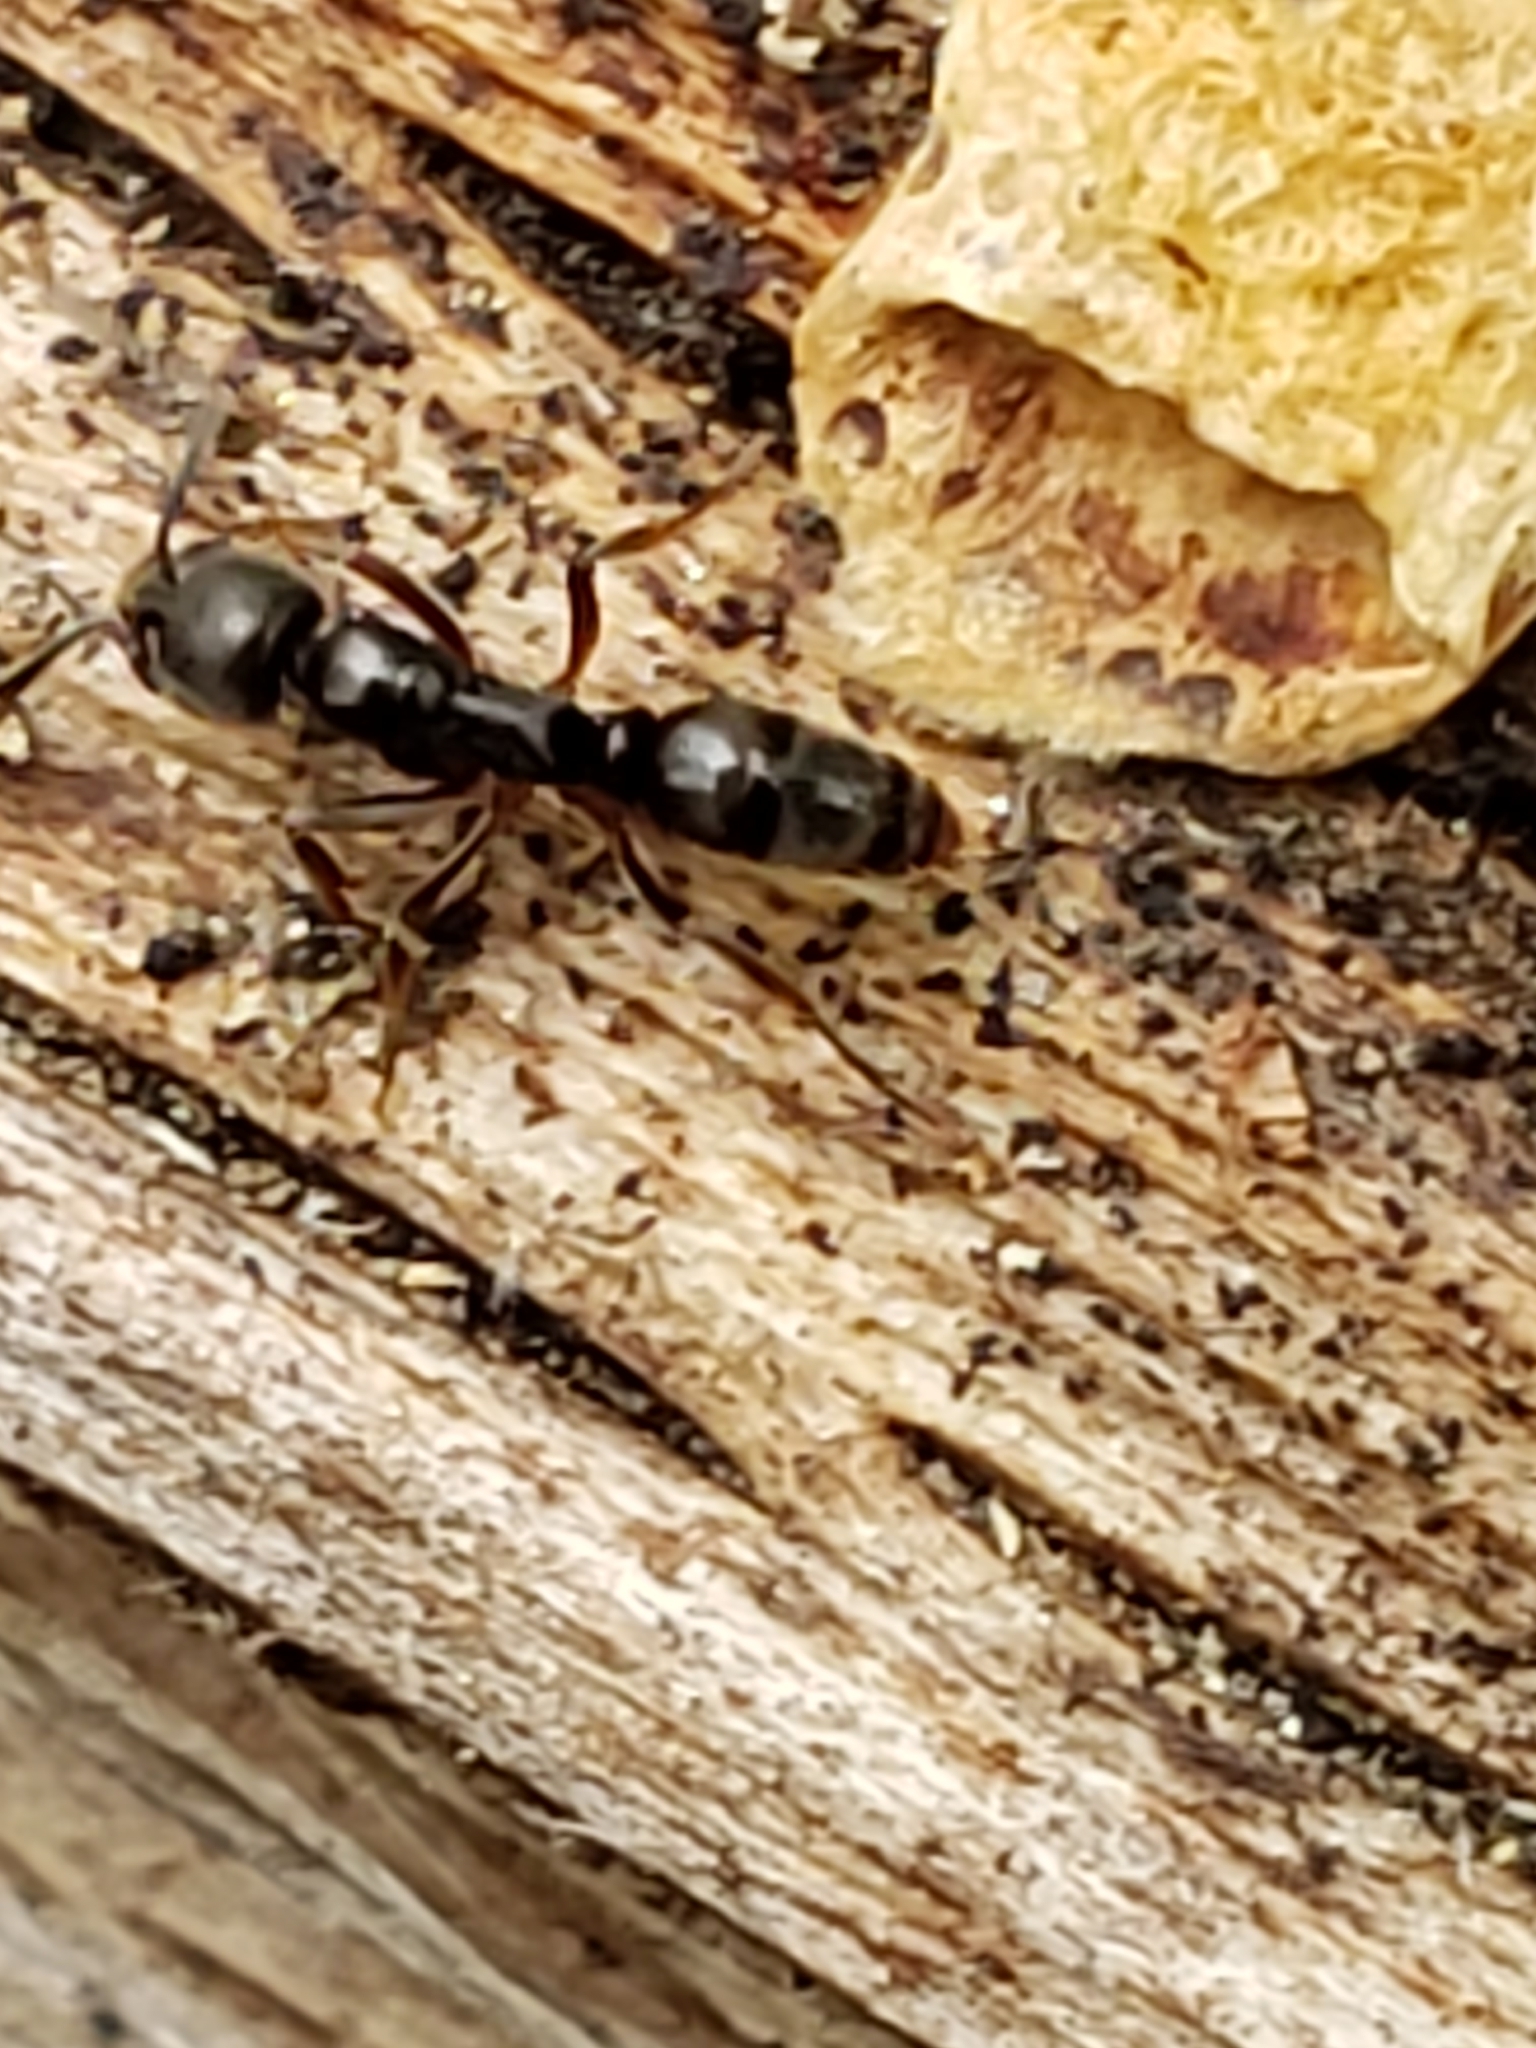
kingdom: Animalia
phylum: Arthropoda
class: Insecta
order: Hymenoptera
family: Formicidae
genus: Pachycondyla
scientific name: Pachycondyla chinensis
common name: Asian needle ant
